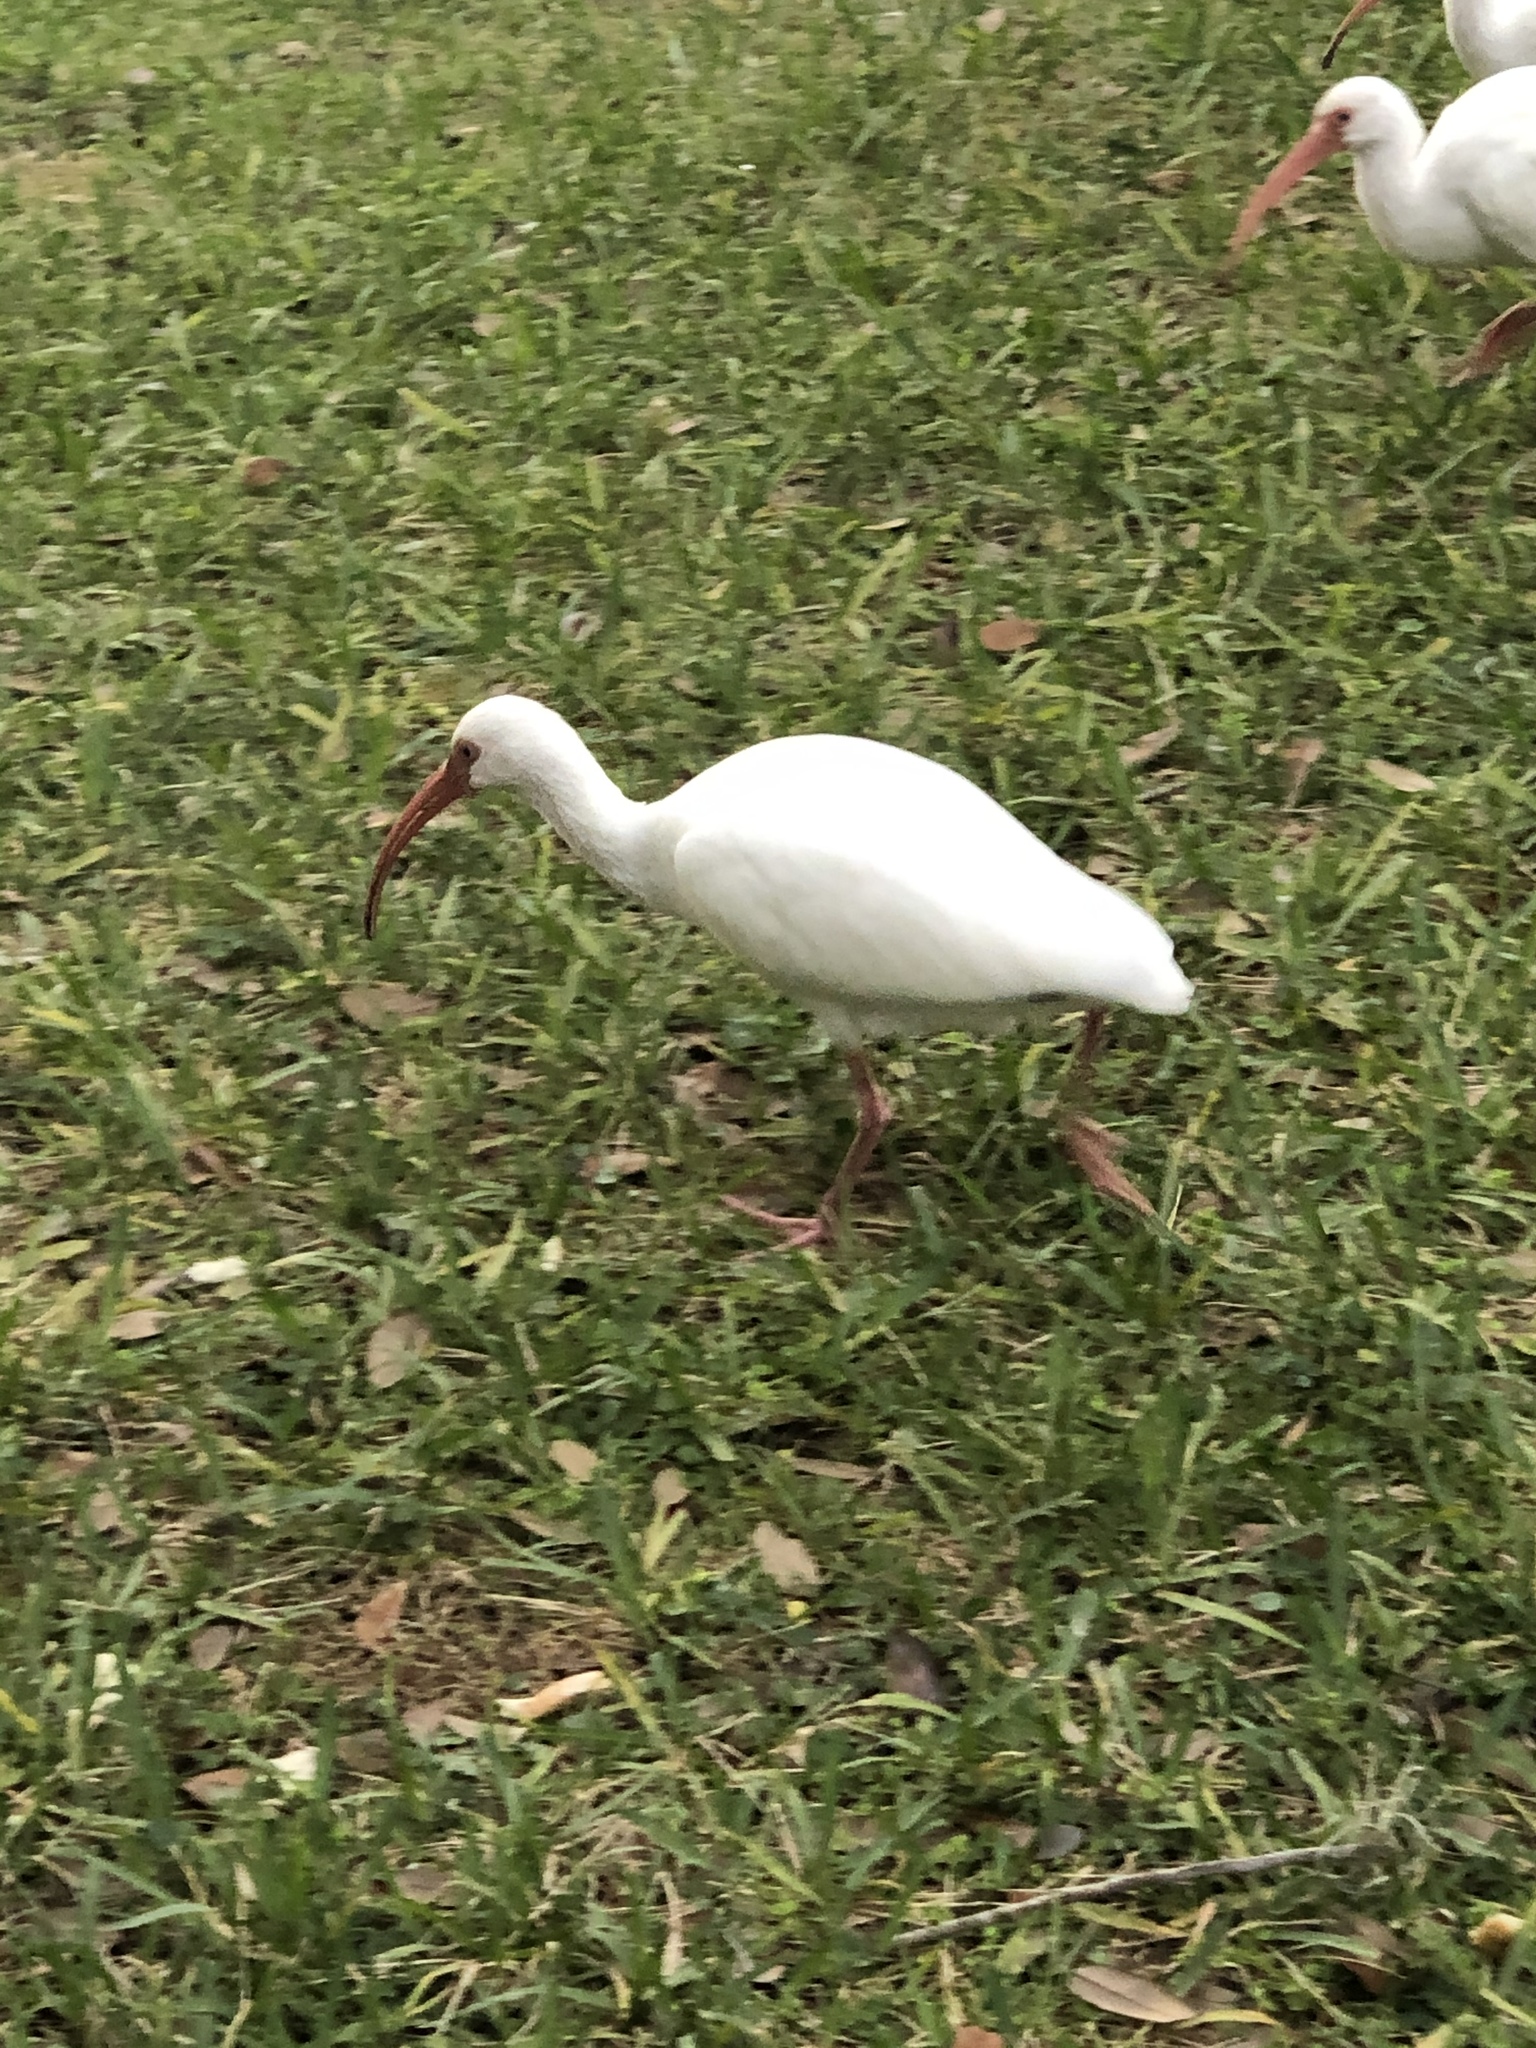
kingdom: Animalia
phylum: Chordata
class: Aves
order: Pelecaniformes
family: Threskiornithidae
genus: Eudocimus
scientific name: Eudocimus albus
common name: White ibis
